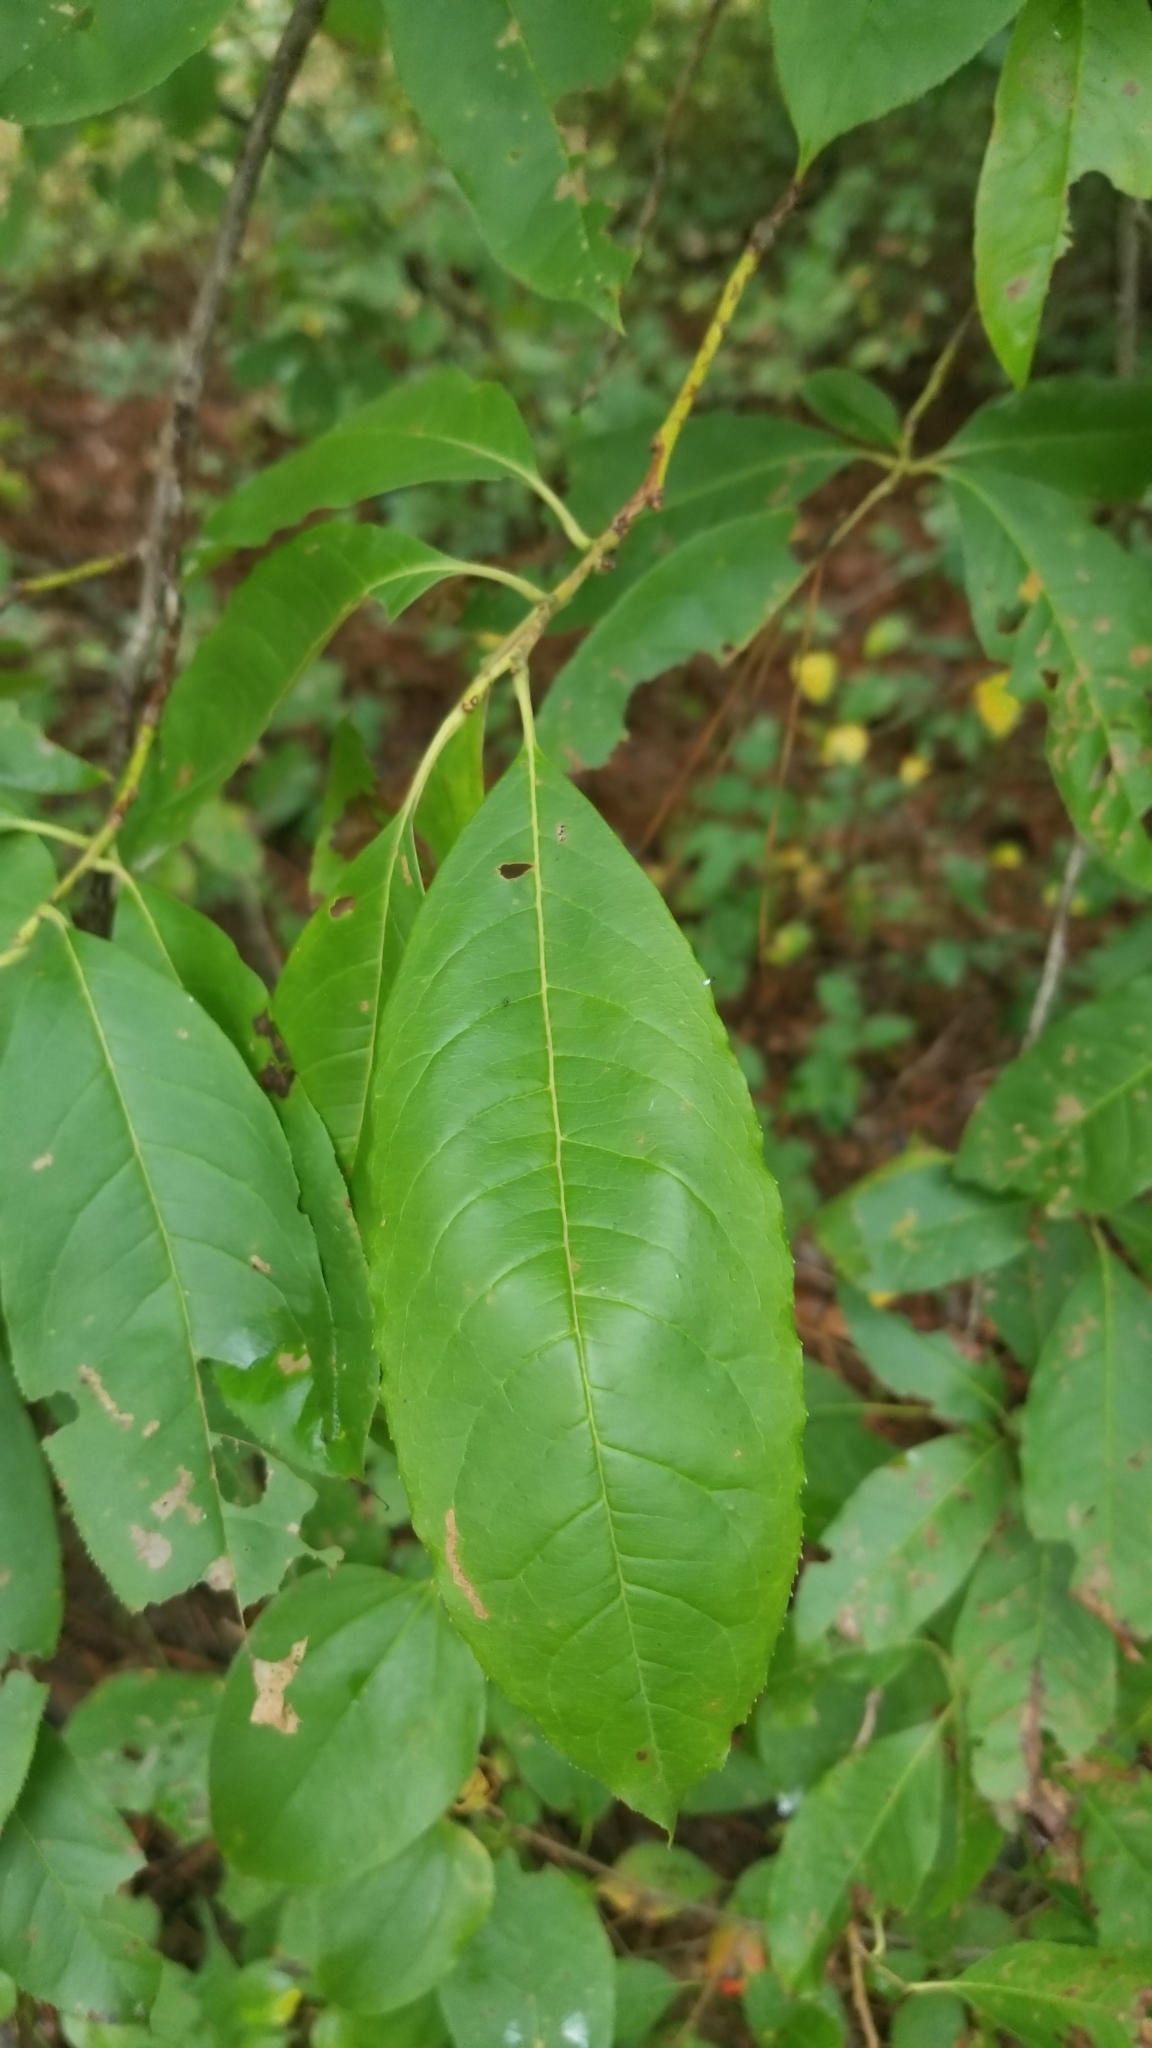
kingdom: Plantae
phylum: Tracheophyta
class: Magnoliopsida
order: Ericales
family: Ericaceae
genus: Oxydendrum
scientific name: Oxydendrum arboreum
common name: Sourwood
